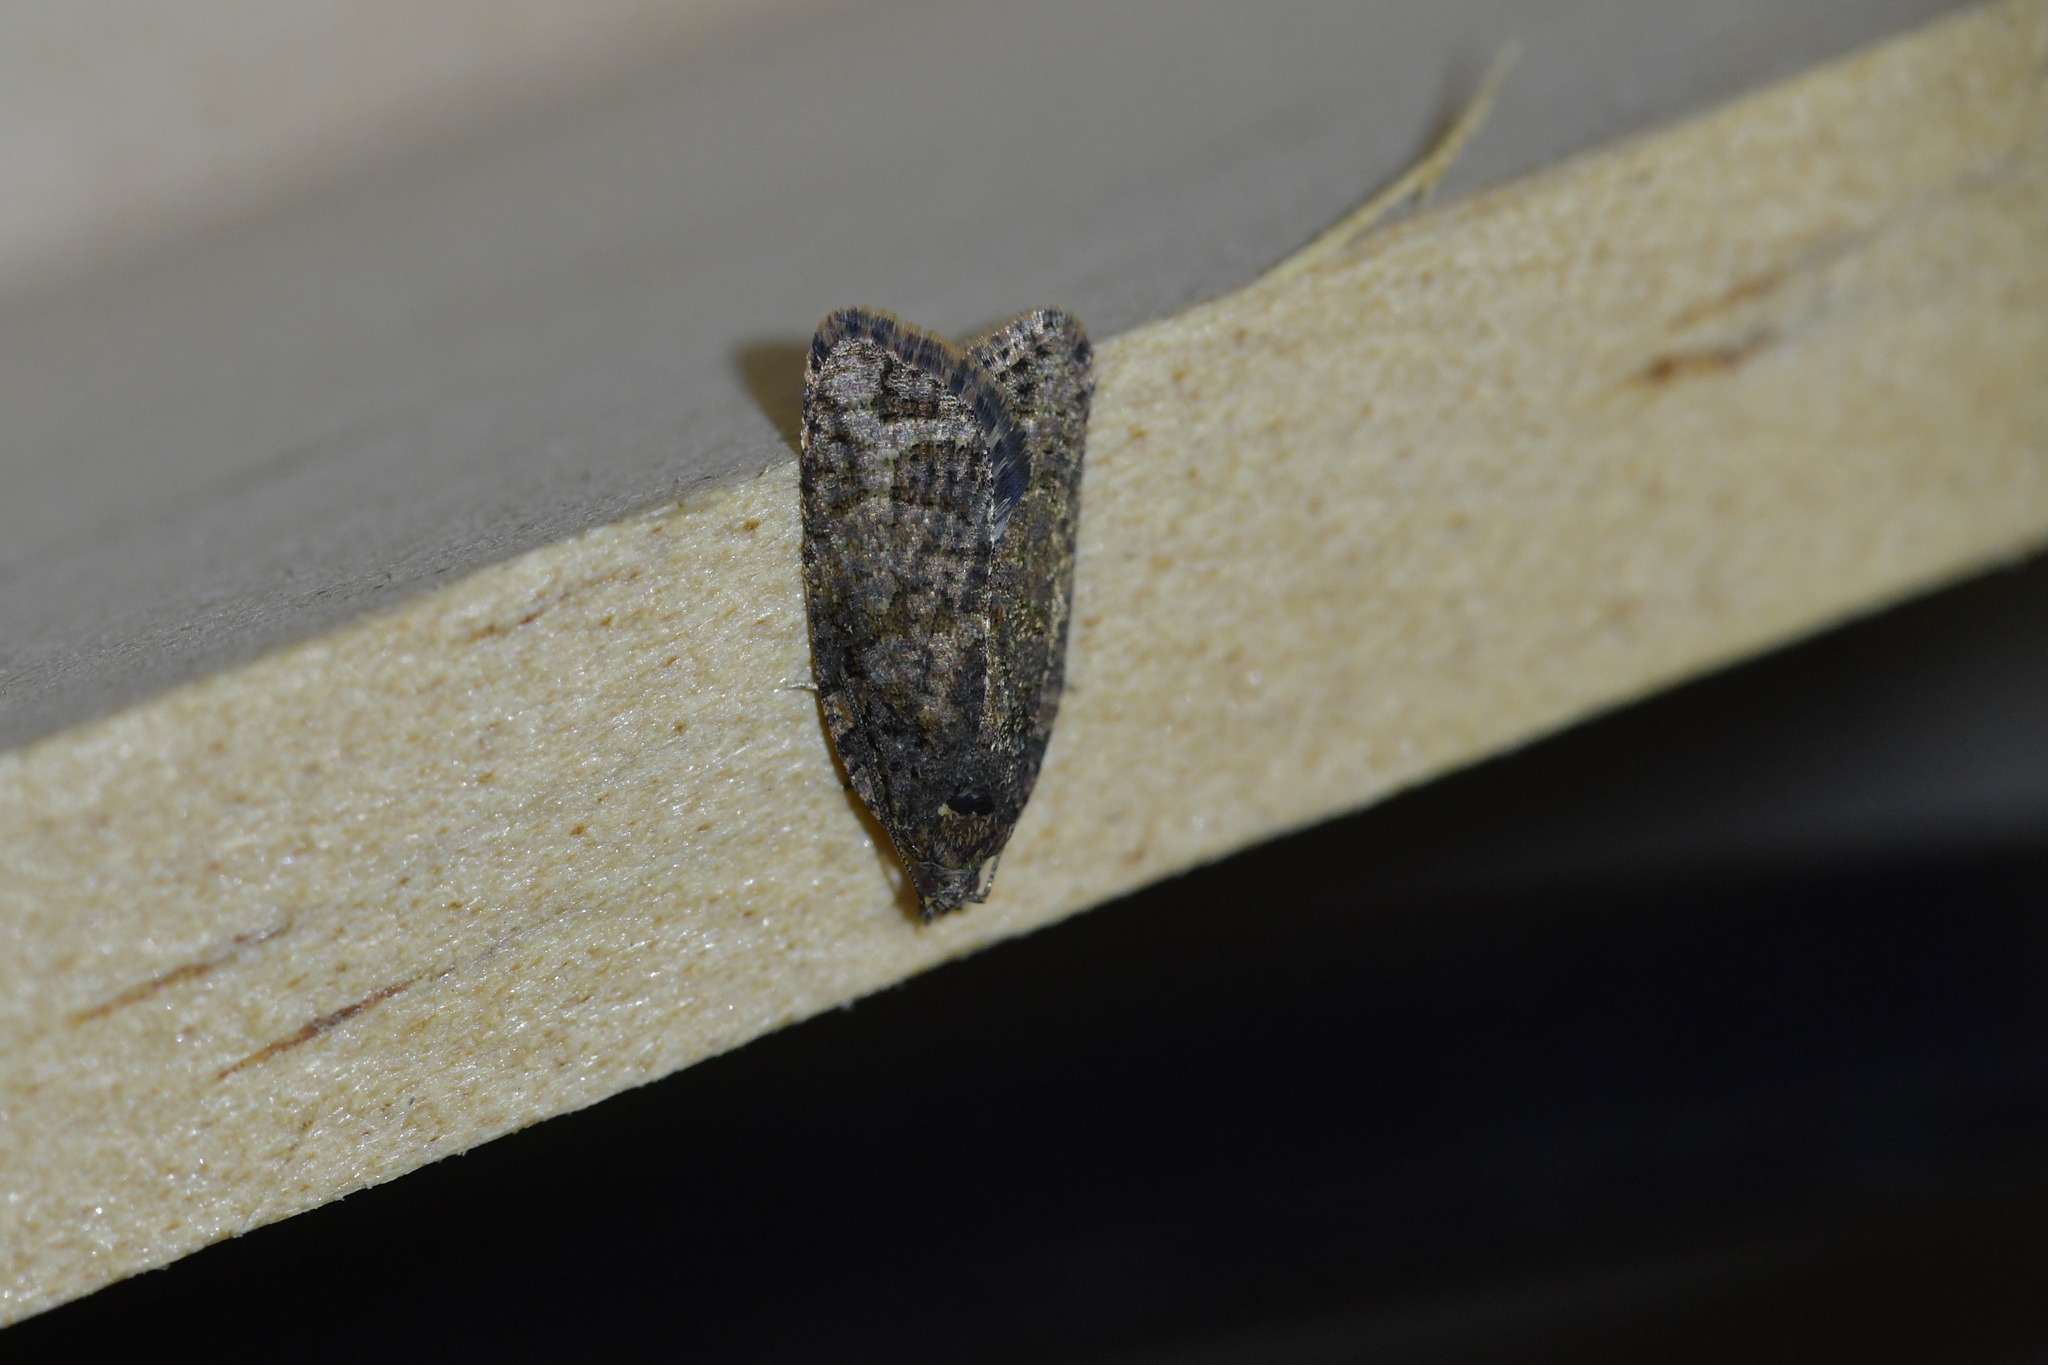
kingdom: Animalia
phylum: Arthropoda
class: Insecta
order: Lepidoptera
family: Tortricidae
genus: Capua
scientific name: Capua intractana
